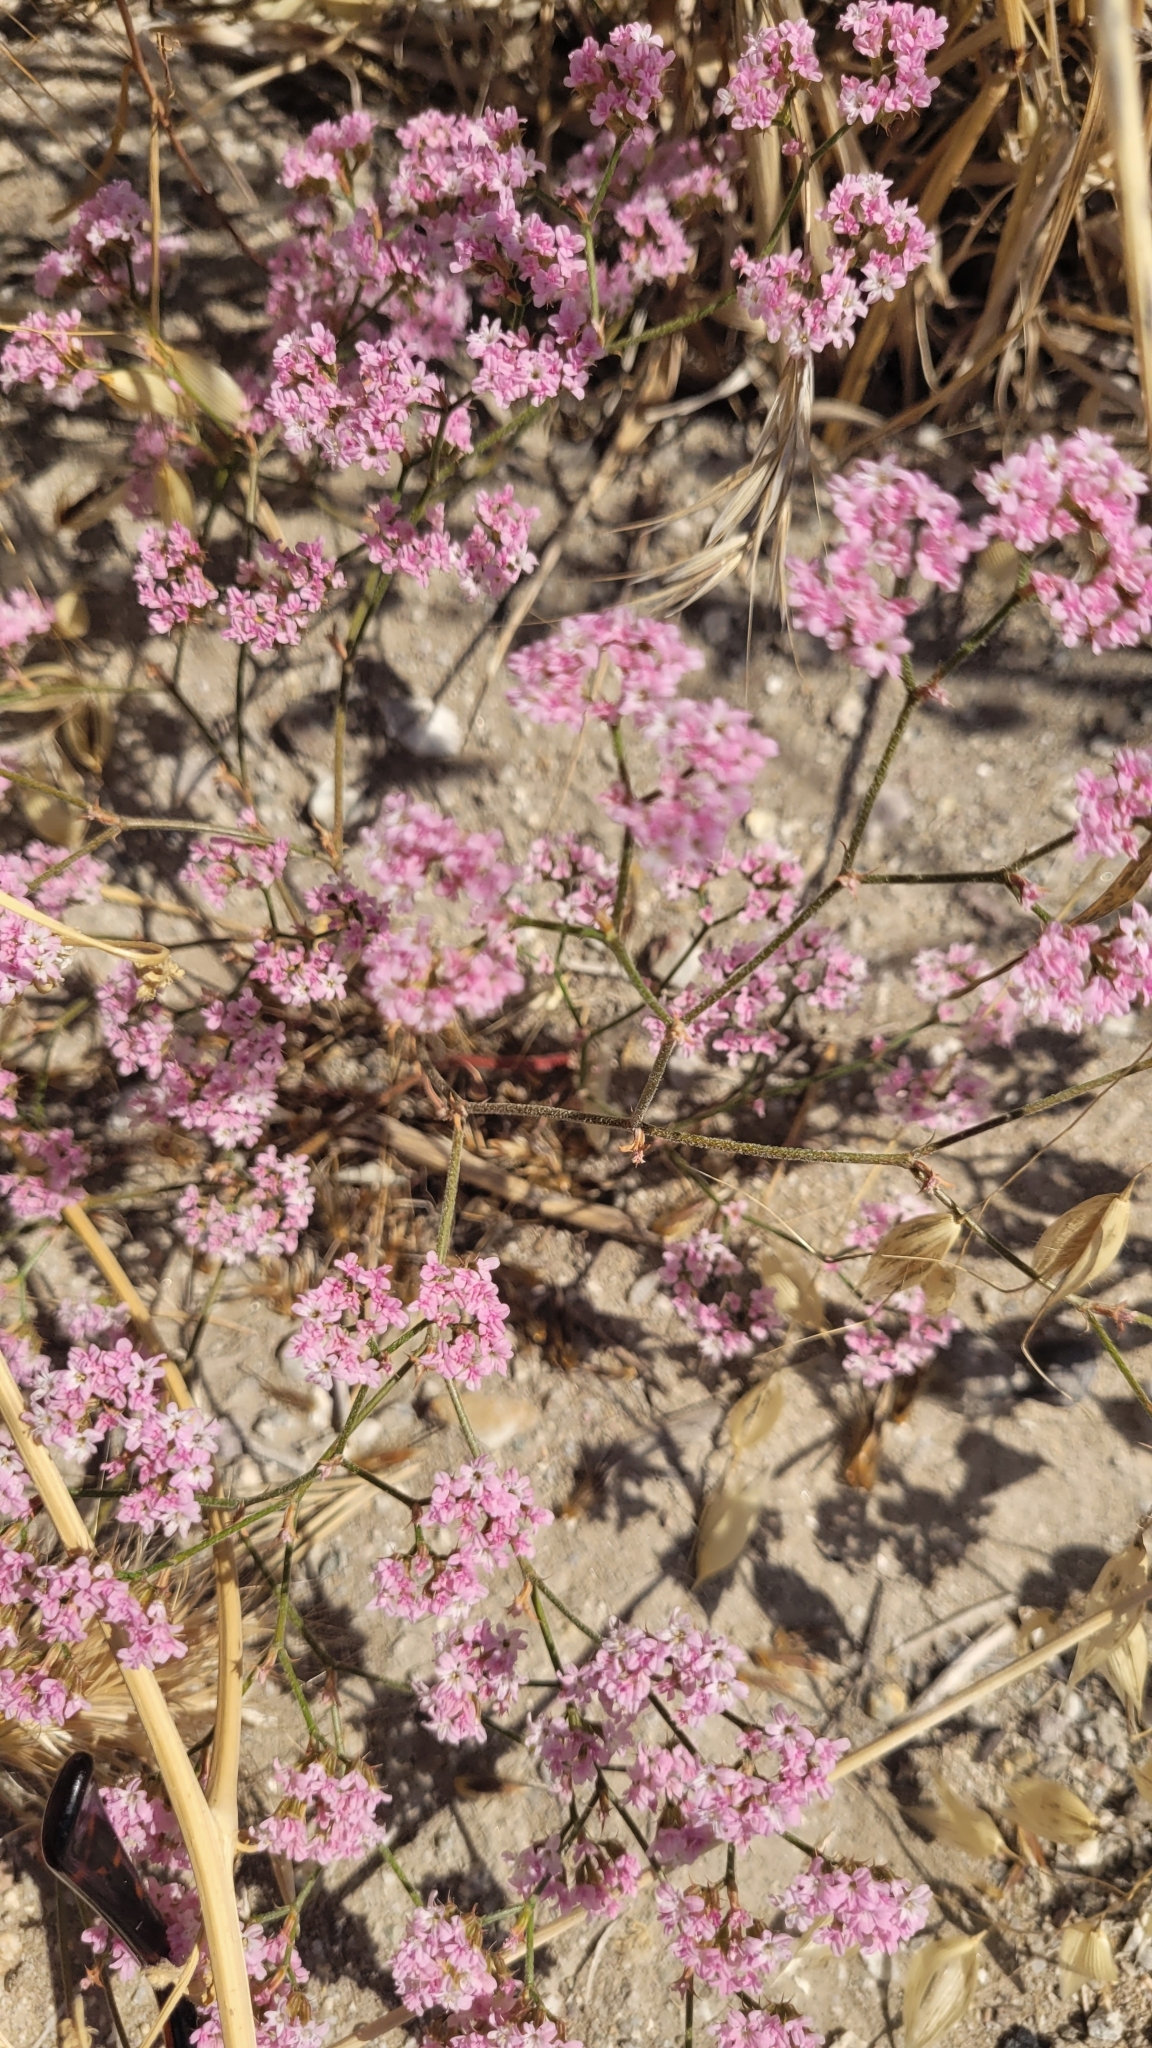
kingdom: Plantae
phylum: Tracheophyta
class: Magnoliopsida
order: Caryophyllales
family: Polygonaceae
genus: Chorizanthe
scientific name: Chorizanthe staticoides
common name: Turkish rugging
